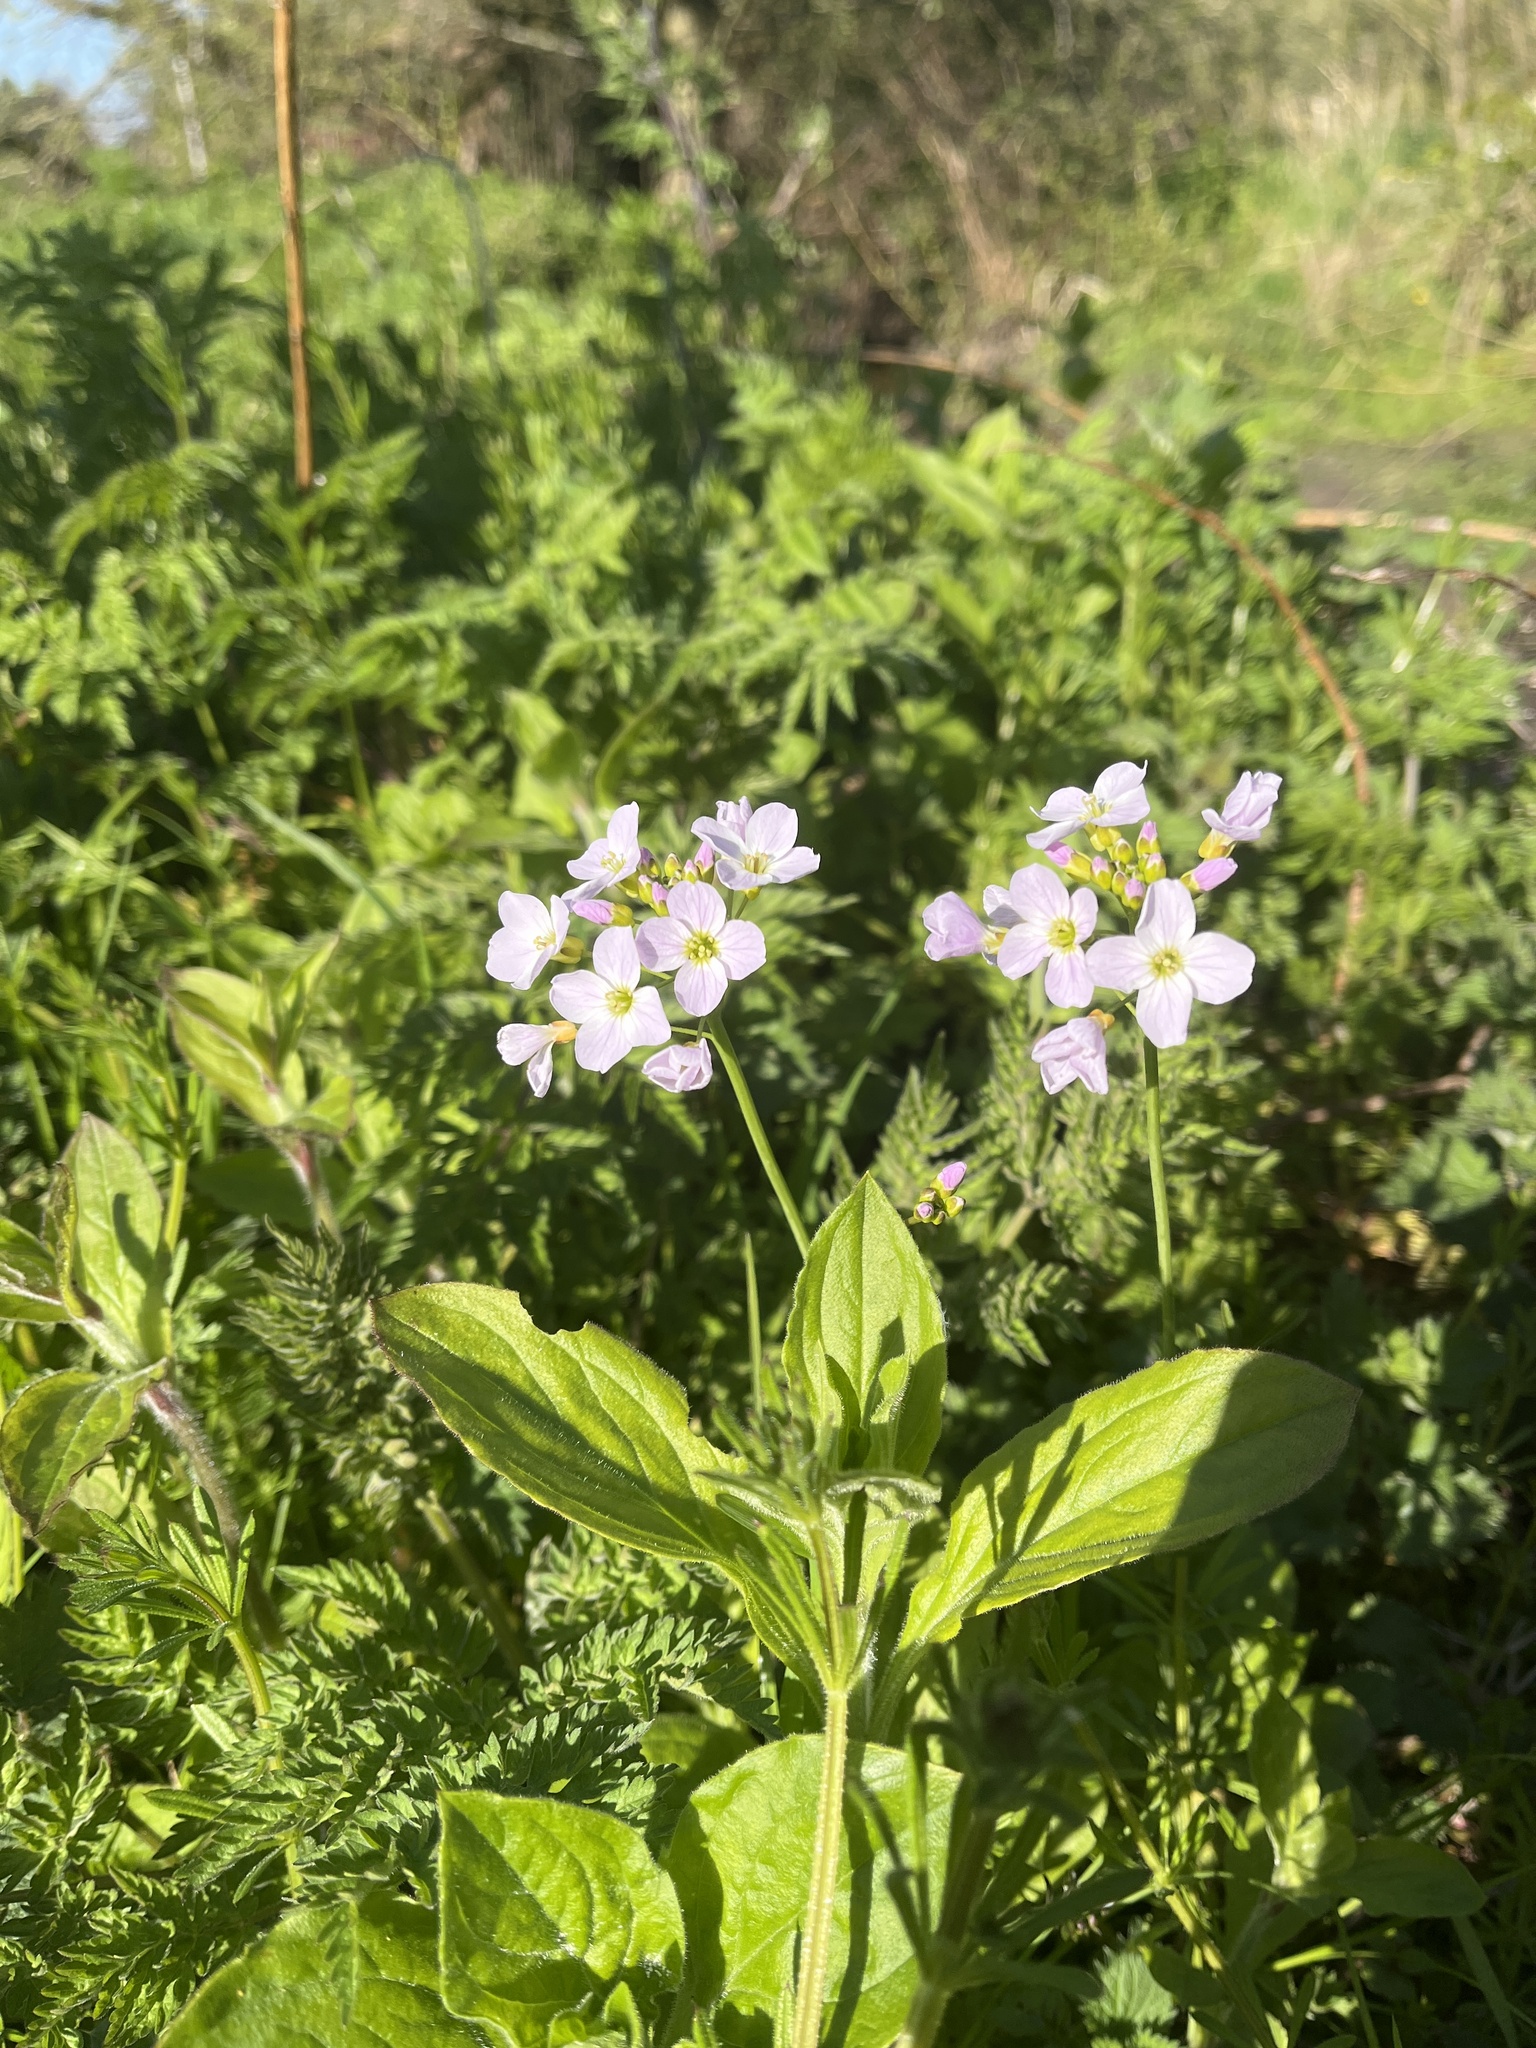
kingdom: Plantae
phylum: Tracheophyta
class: Magnoliopsida
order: Brassicales
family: Brassicaceae
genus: Cardamine
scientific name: Cardamine pratensis
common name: Cuckoo flower
